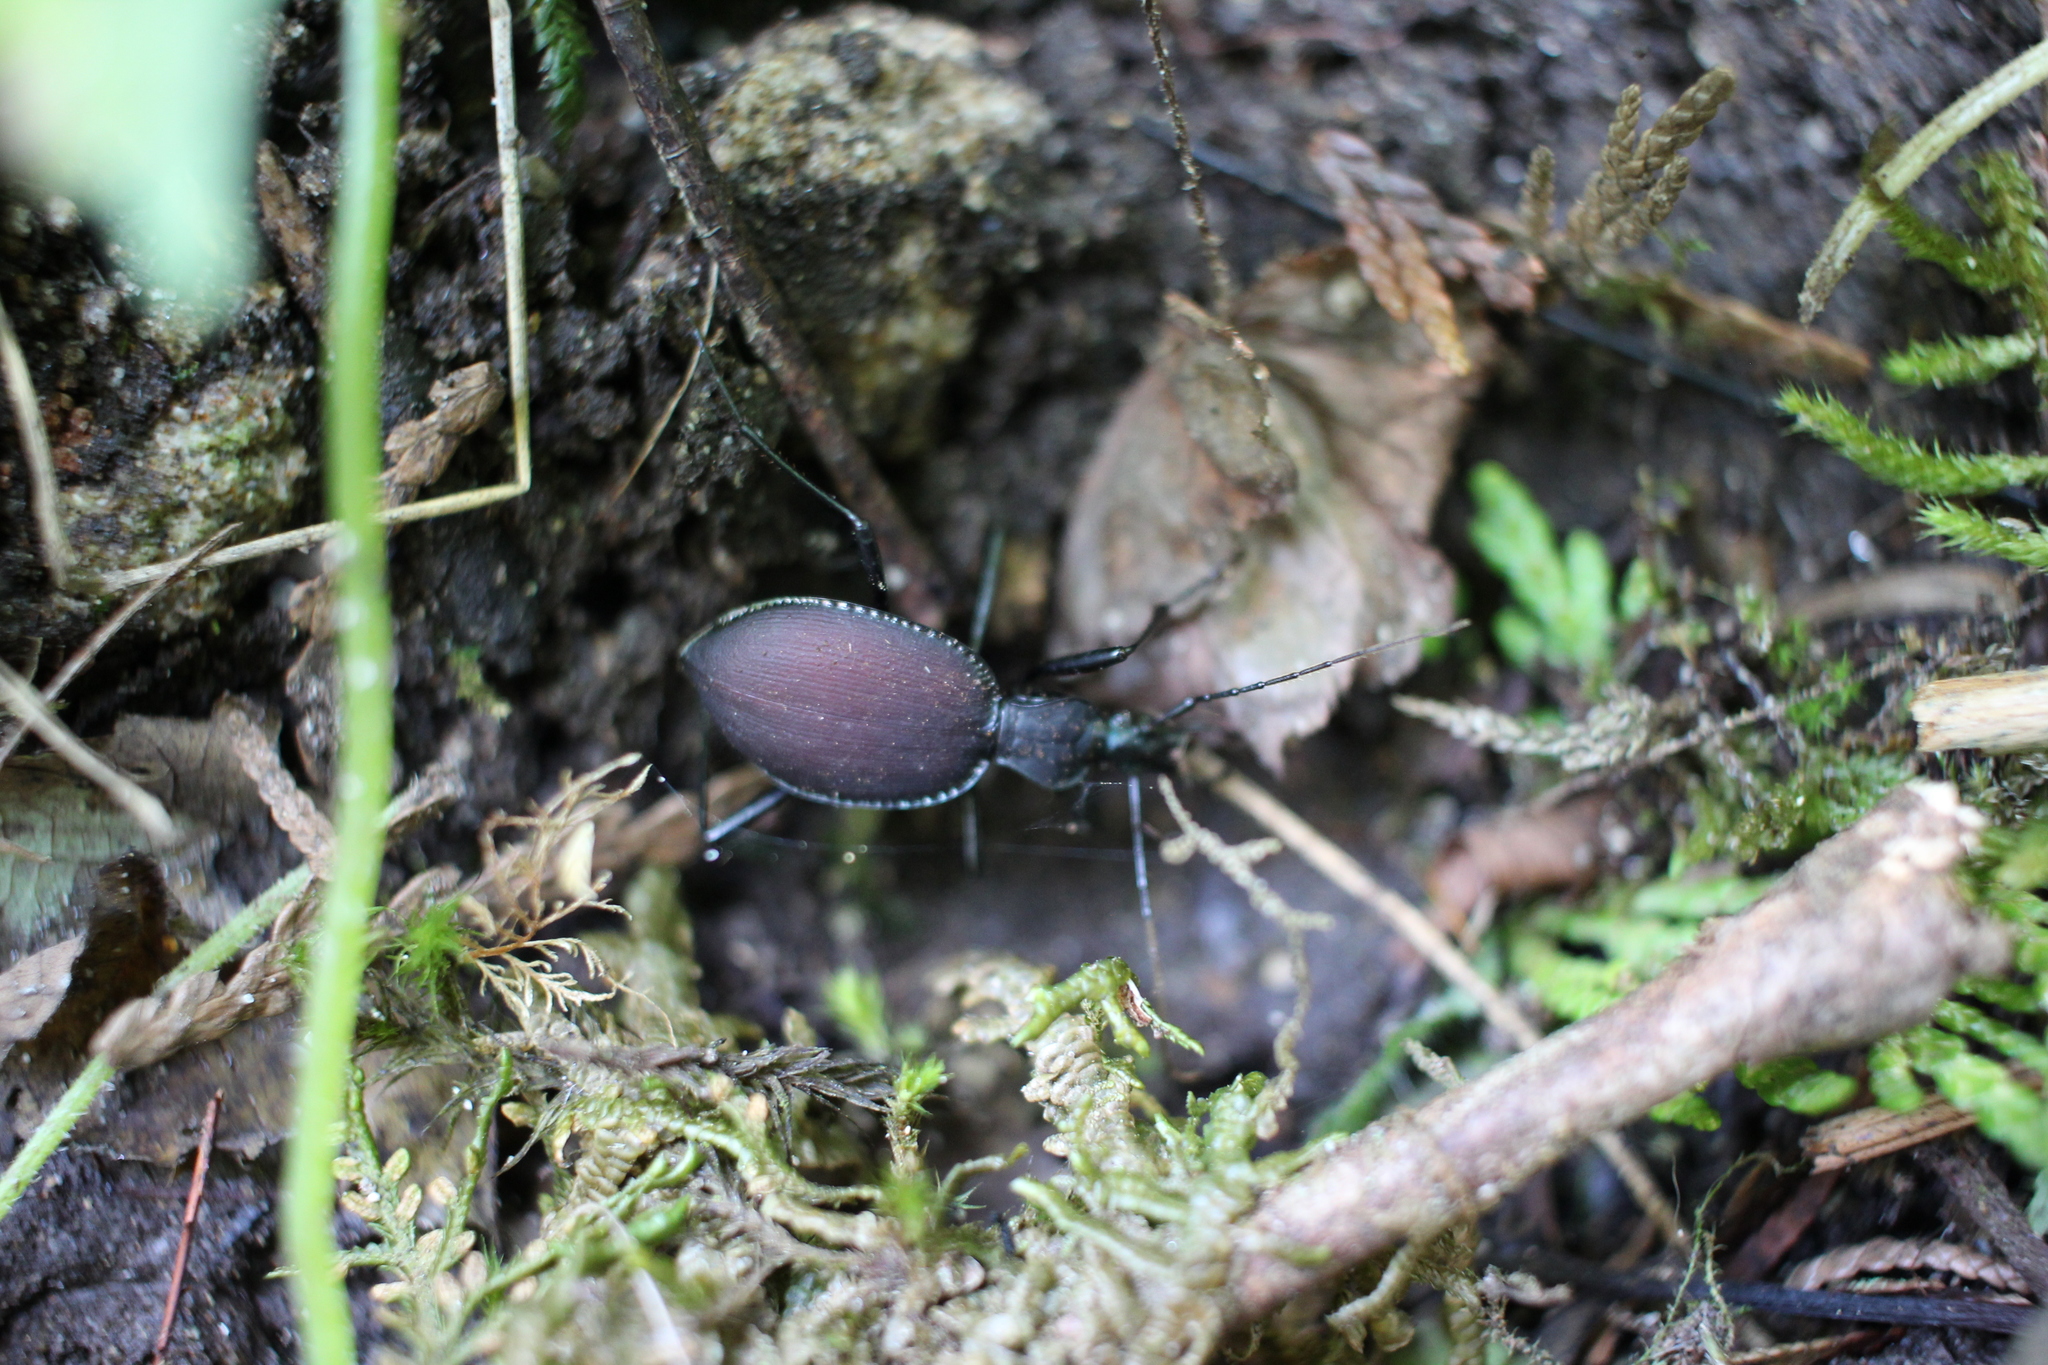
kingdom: Animalia
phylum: Arthropoda
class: Insecta
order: Coleoptera
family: Carabidae
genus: Scaphinotus
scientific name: Scaphinotus angusticollis
